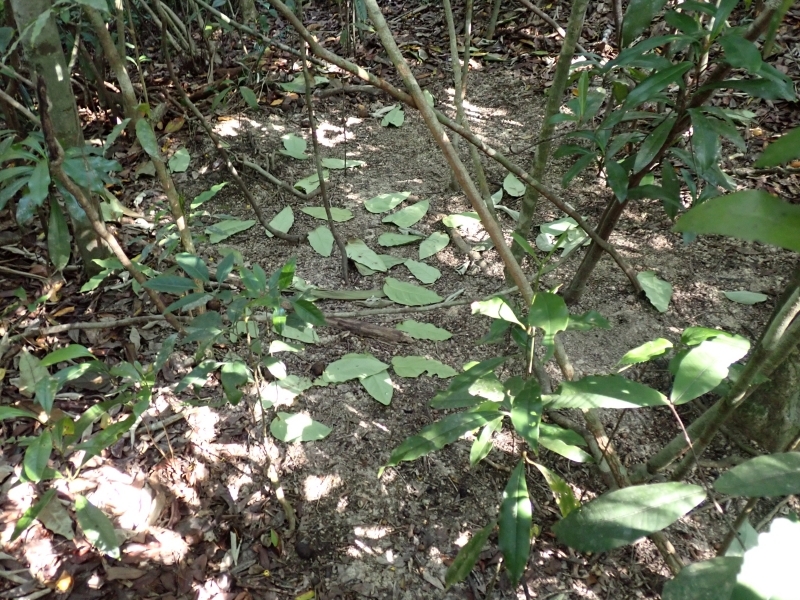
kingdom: Animalia
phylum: Chordata
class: Aves
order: Passeriformes
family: Ptilonorhynchidae
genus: Scenopoeetes
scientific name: Scenopoeetes dentirostris
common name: Tooth-billed bowerbird
